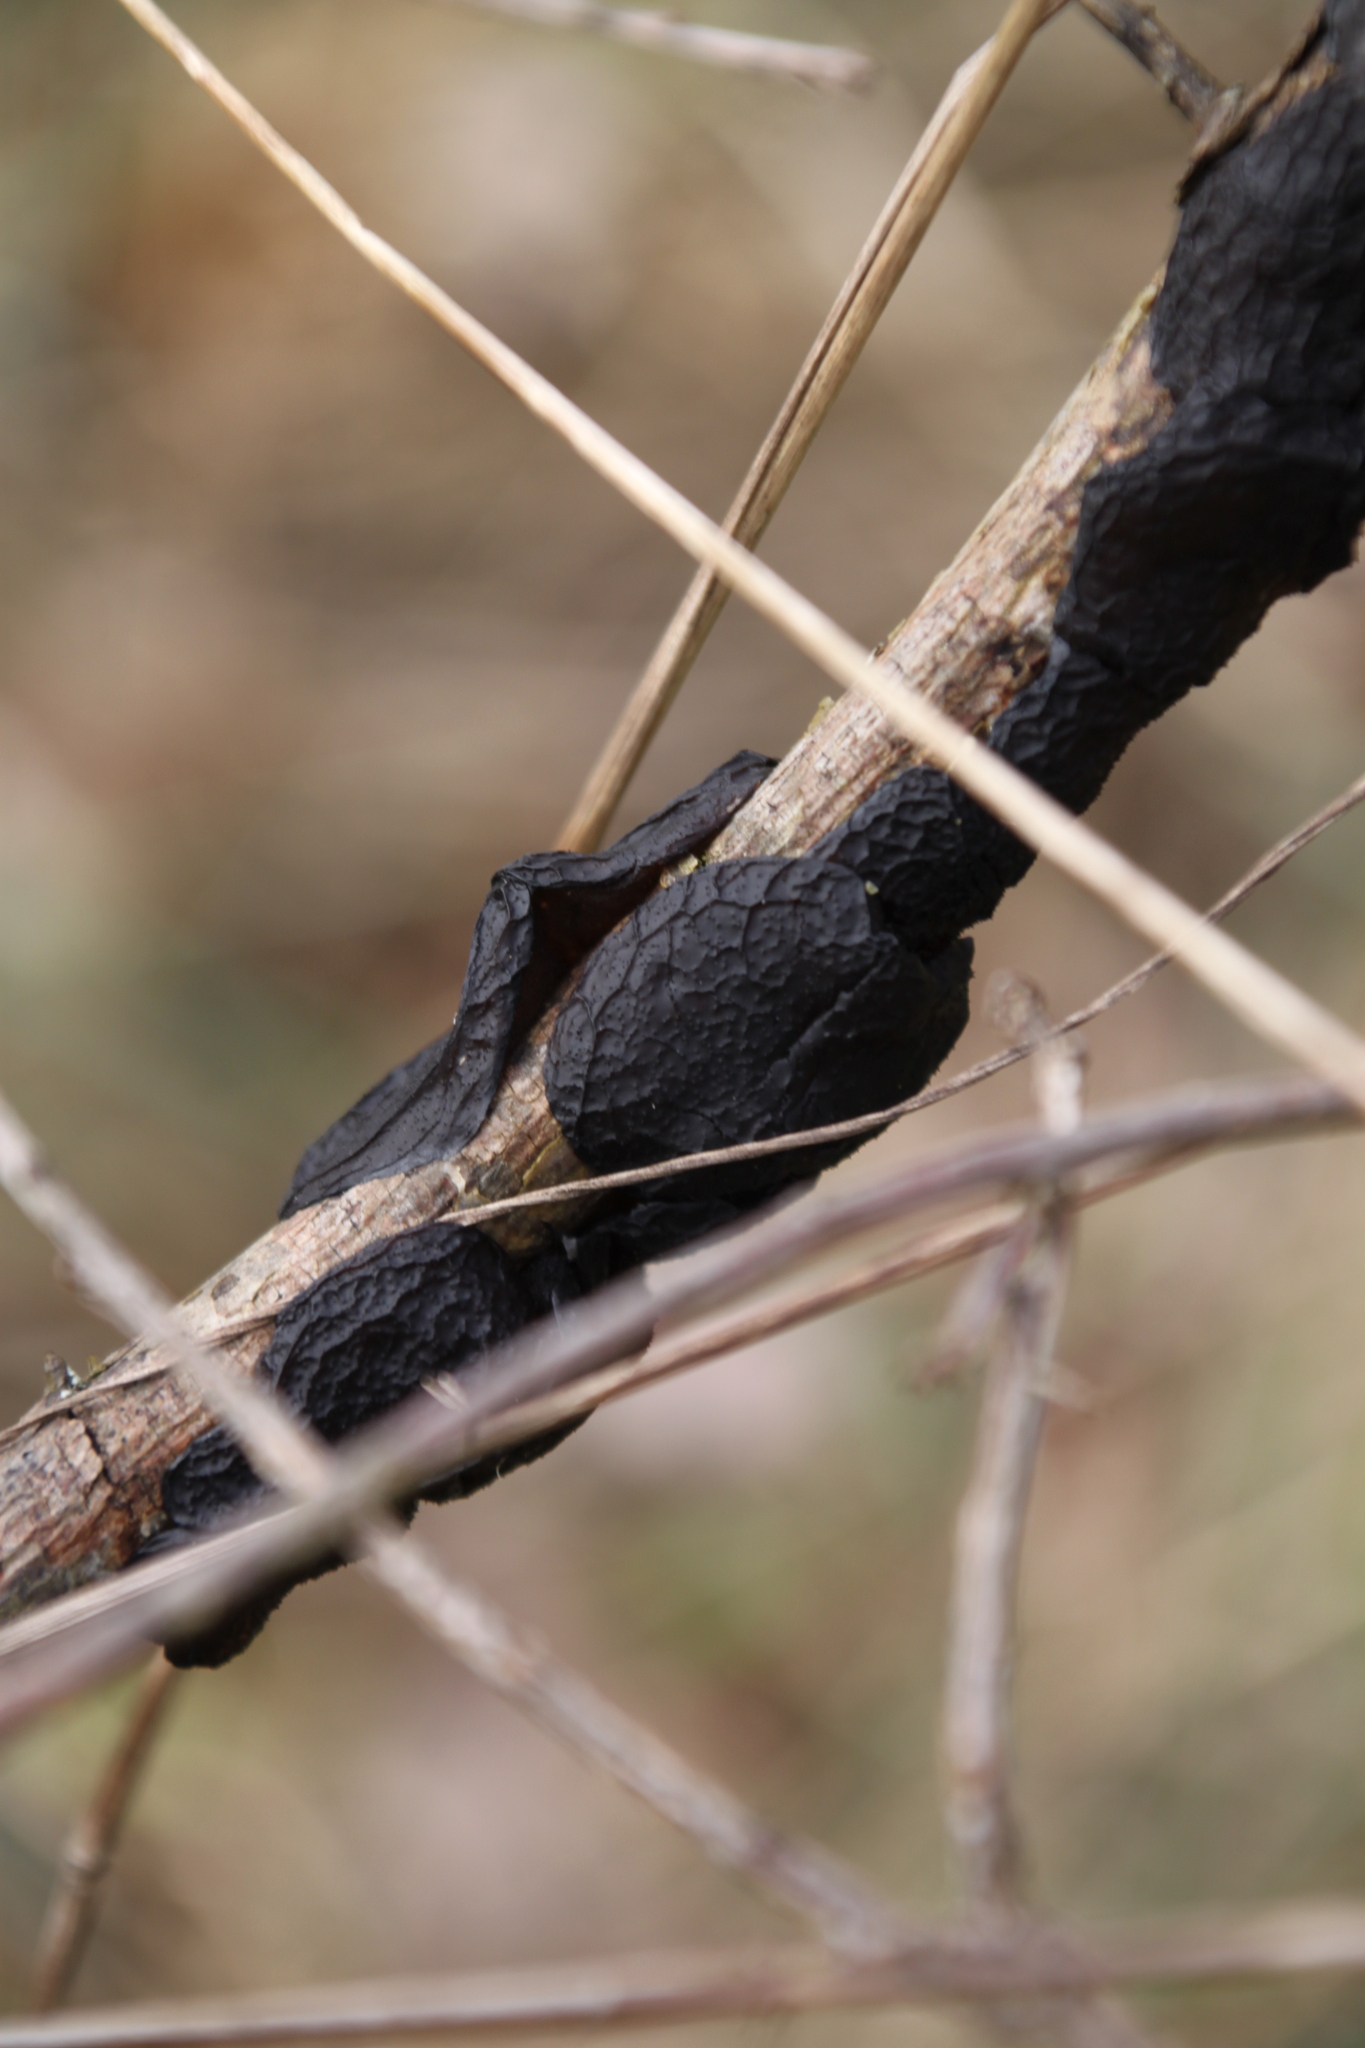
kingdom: Fungi
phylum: Basidiomycota
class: Agaricomycetes
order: Auriculariales
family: Auriculariaceae
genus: Exidia
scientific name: Exidia glandulosa
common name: Witches' butter
